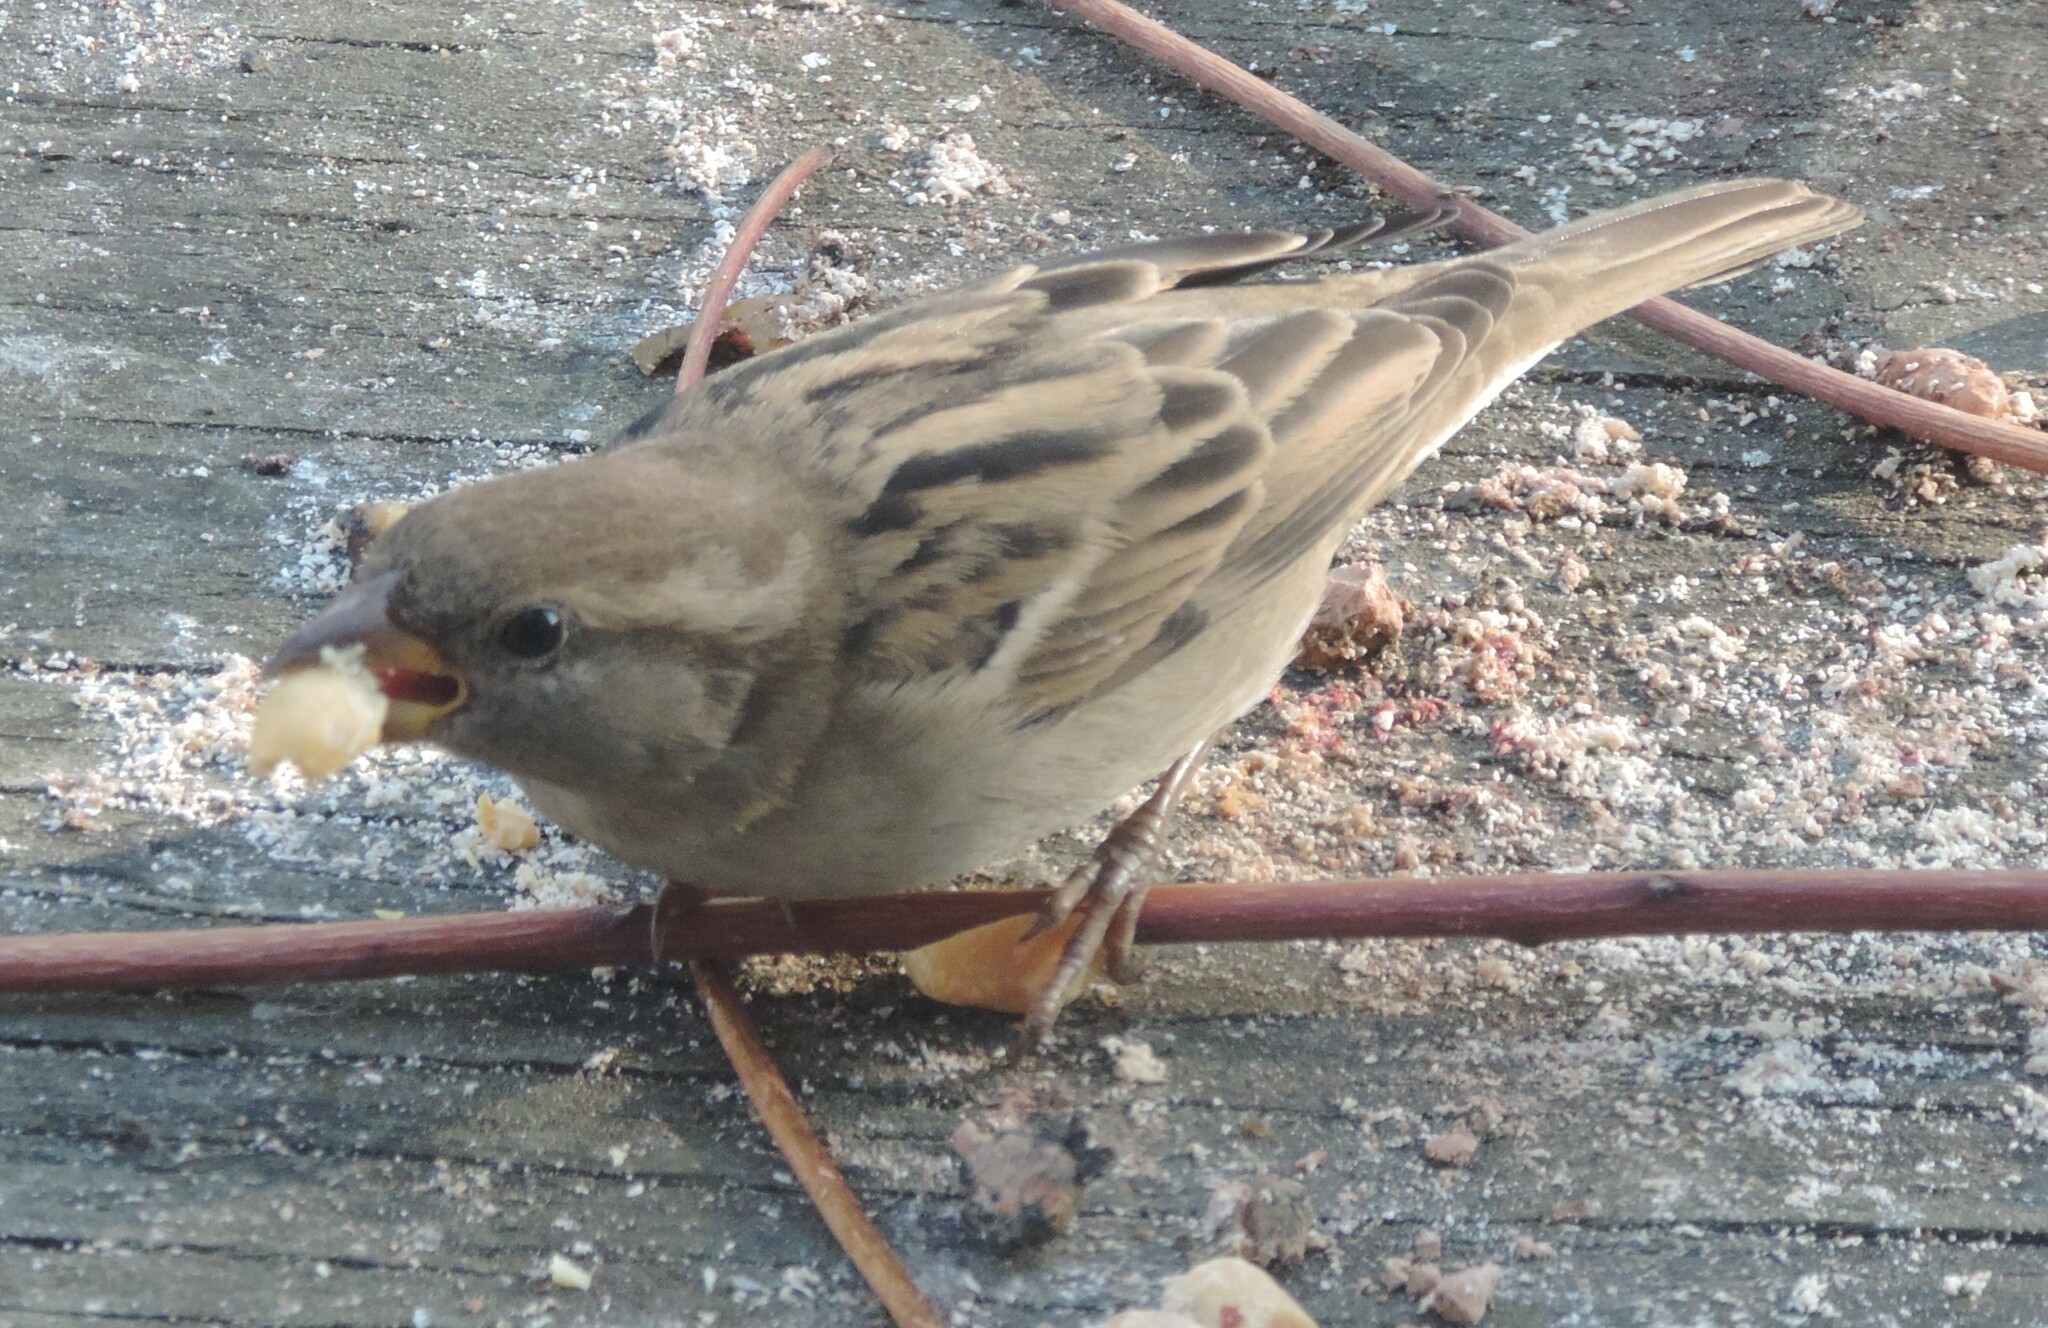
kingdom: Animalia
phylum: Chordata
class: Aves
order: Passeriformes
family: Passeridae
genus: Passer
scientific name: Passer domesticus
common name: House sparrow
